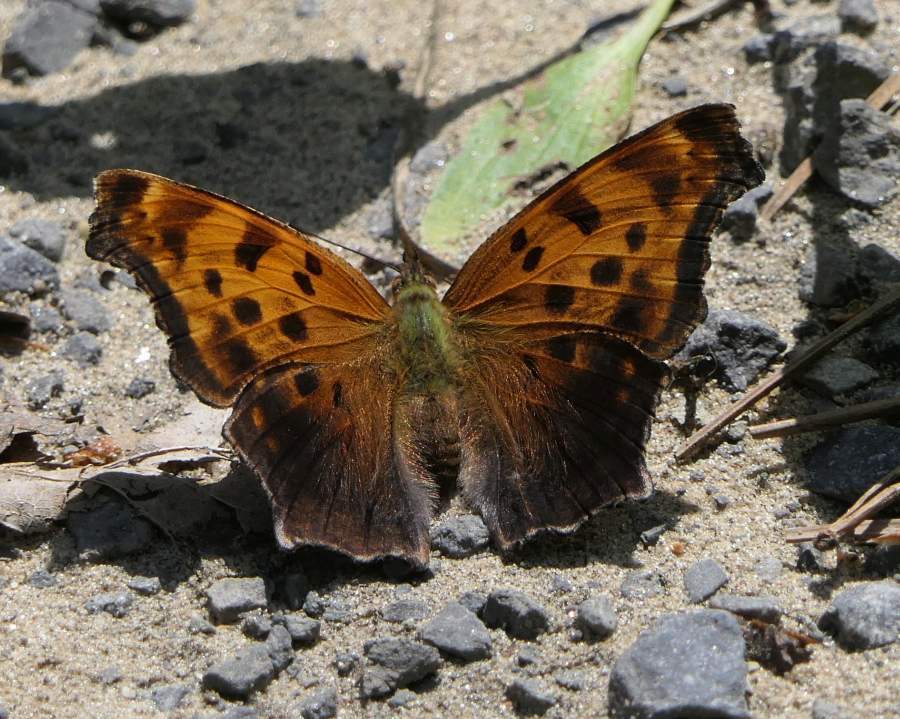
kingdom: Animalia
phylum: Arthropoda
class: Insecta
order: Lepidoptera
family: Nymphalidae
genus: Polygonia
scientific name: Polygonia comma
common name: Eastern comma
